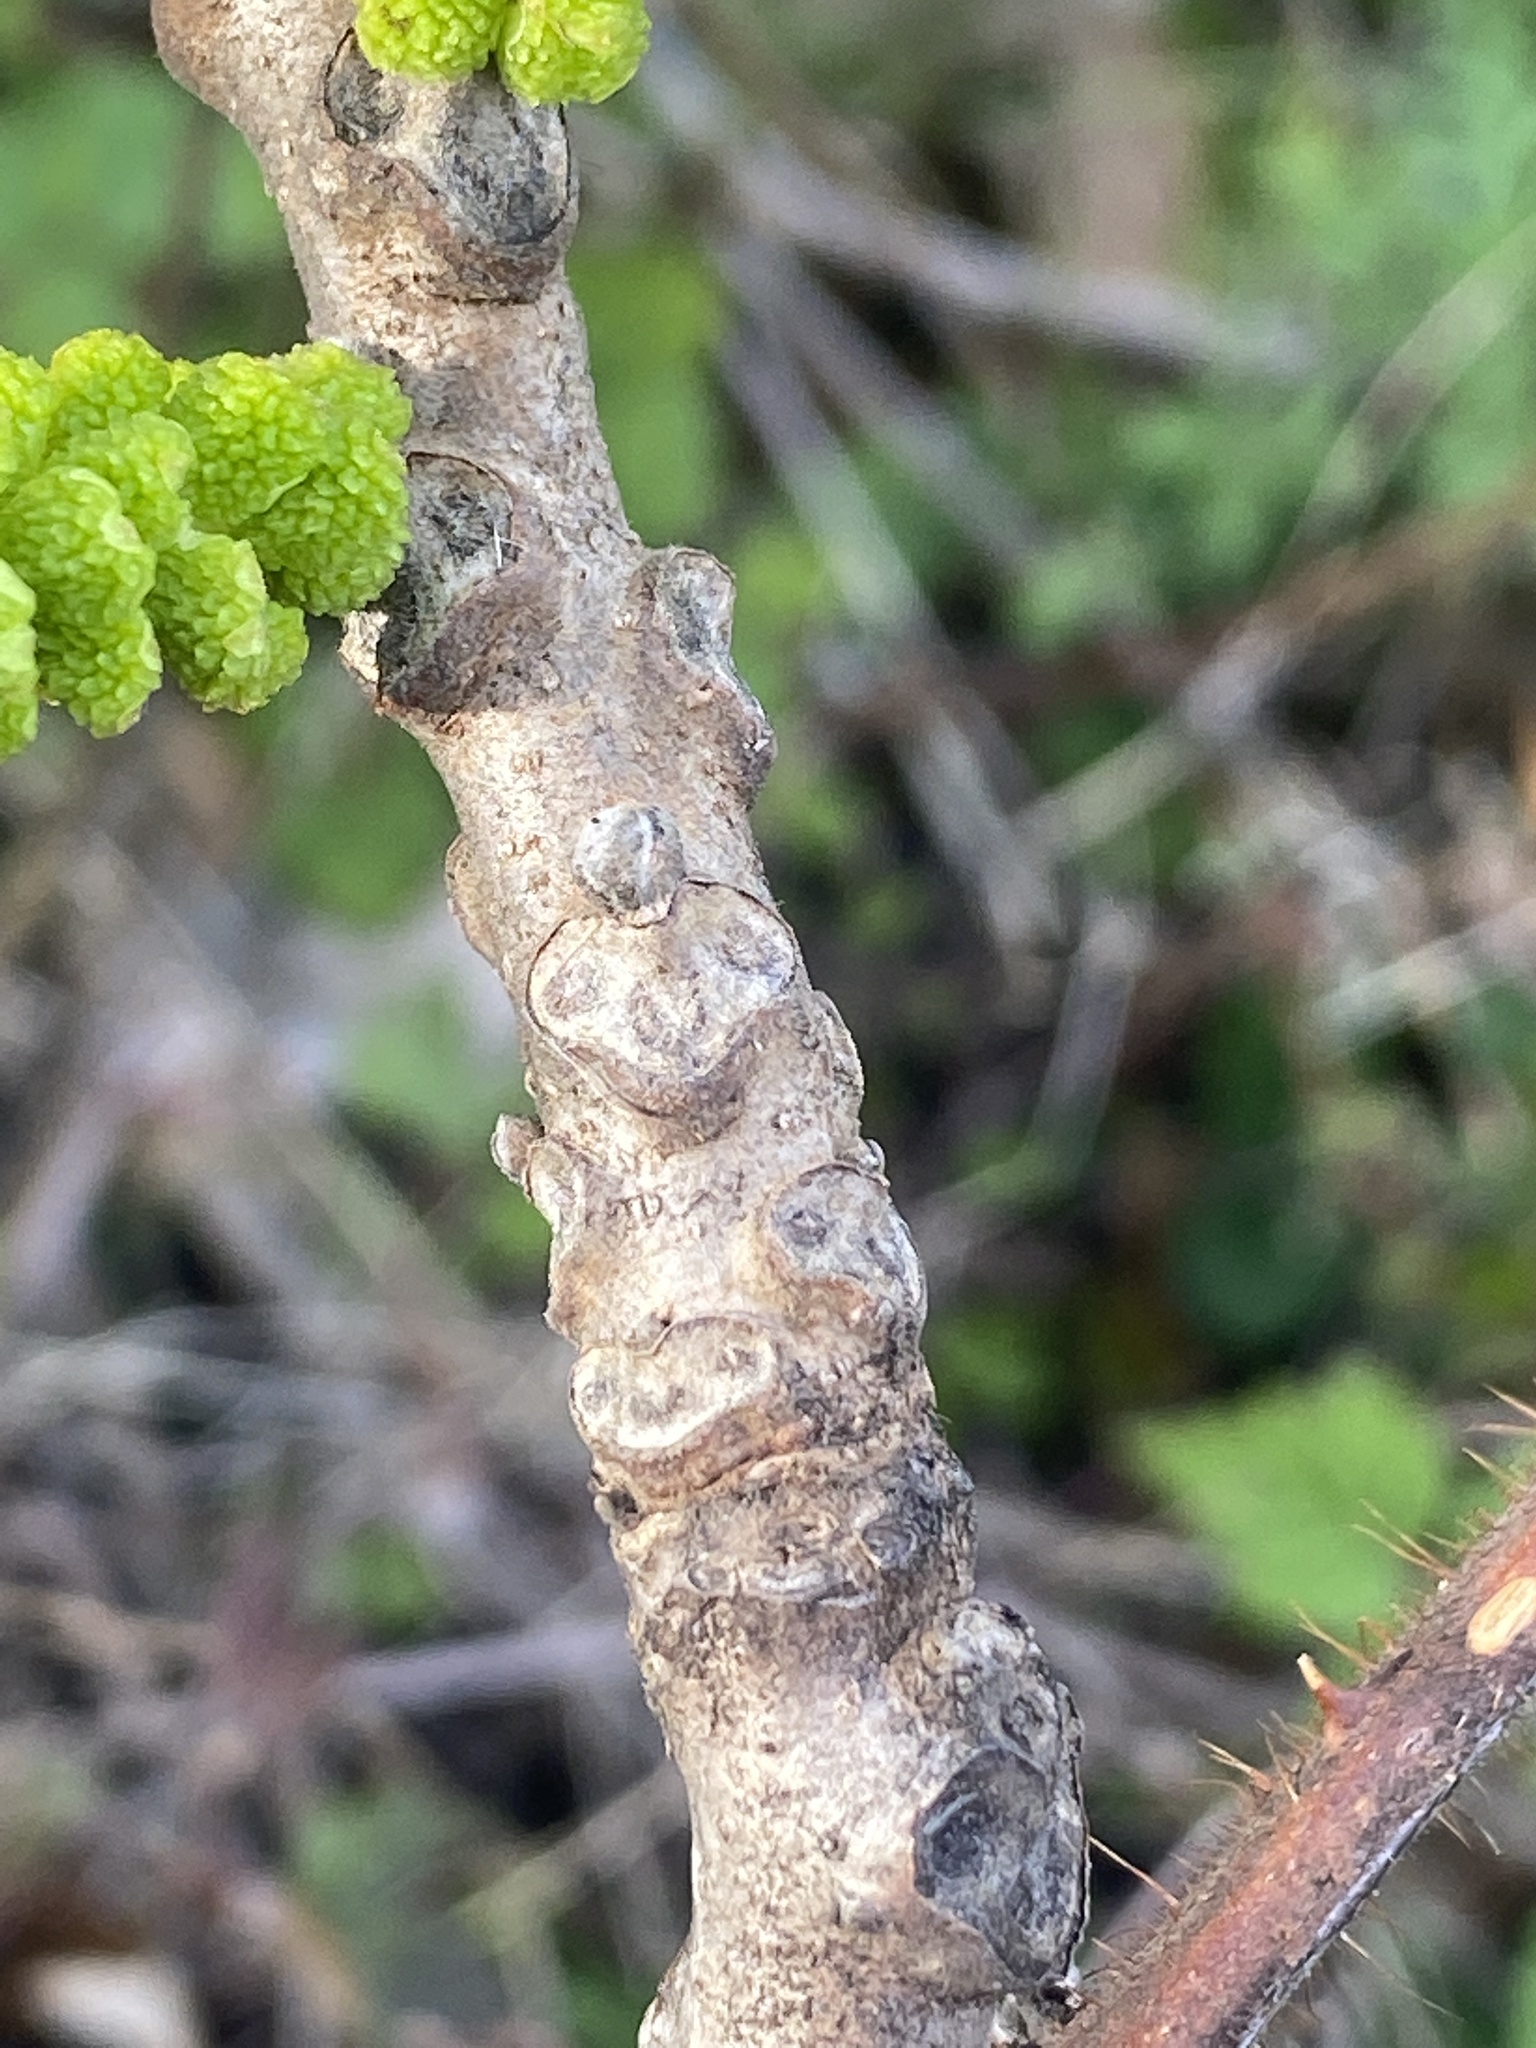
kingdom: Plantae
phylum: Tracheophyta
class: Magnoliopsida
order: Fagales
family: Juglandaceae
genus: Juglans
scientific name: Juglans nigra
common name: Black walnut
